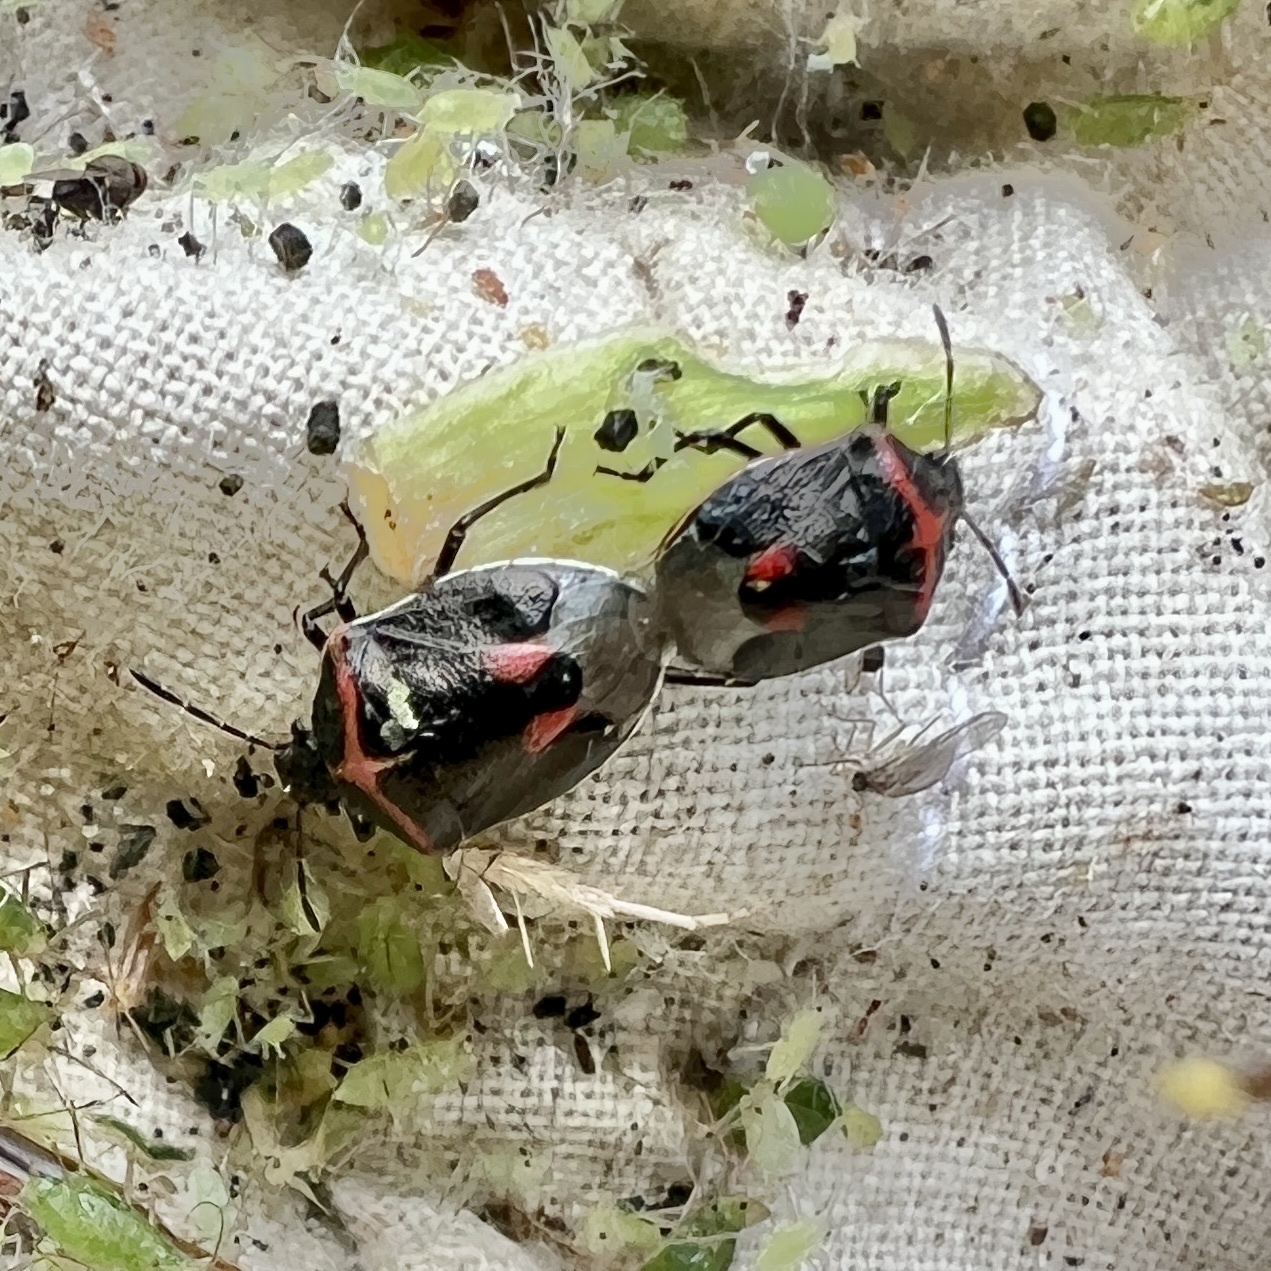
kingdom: Animalia
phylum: Arthropoda
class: Insecta
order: Hemiptera
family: Pentatomidae
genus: Cosmopepla
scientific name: Cosmopepla lintneriana
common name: Twice-stabbed stink bug
